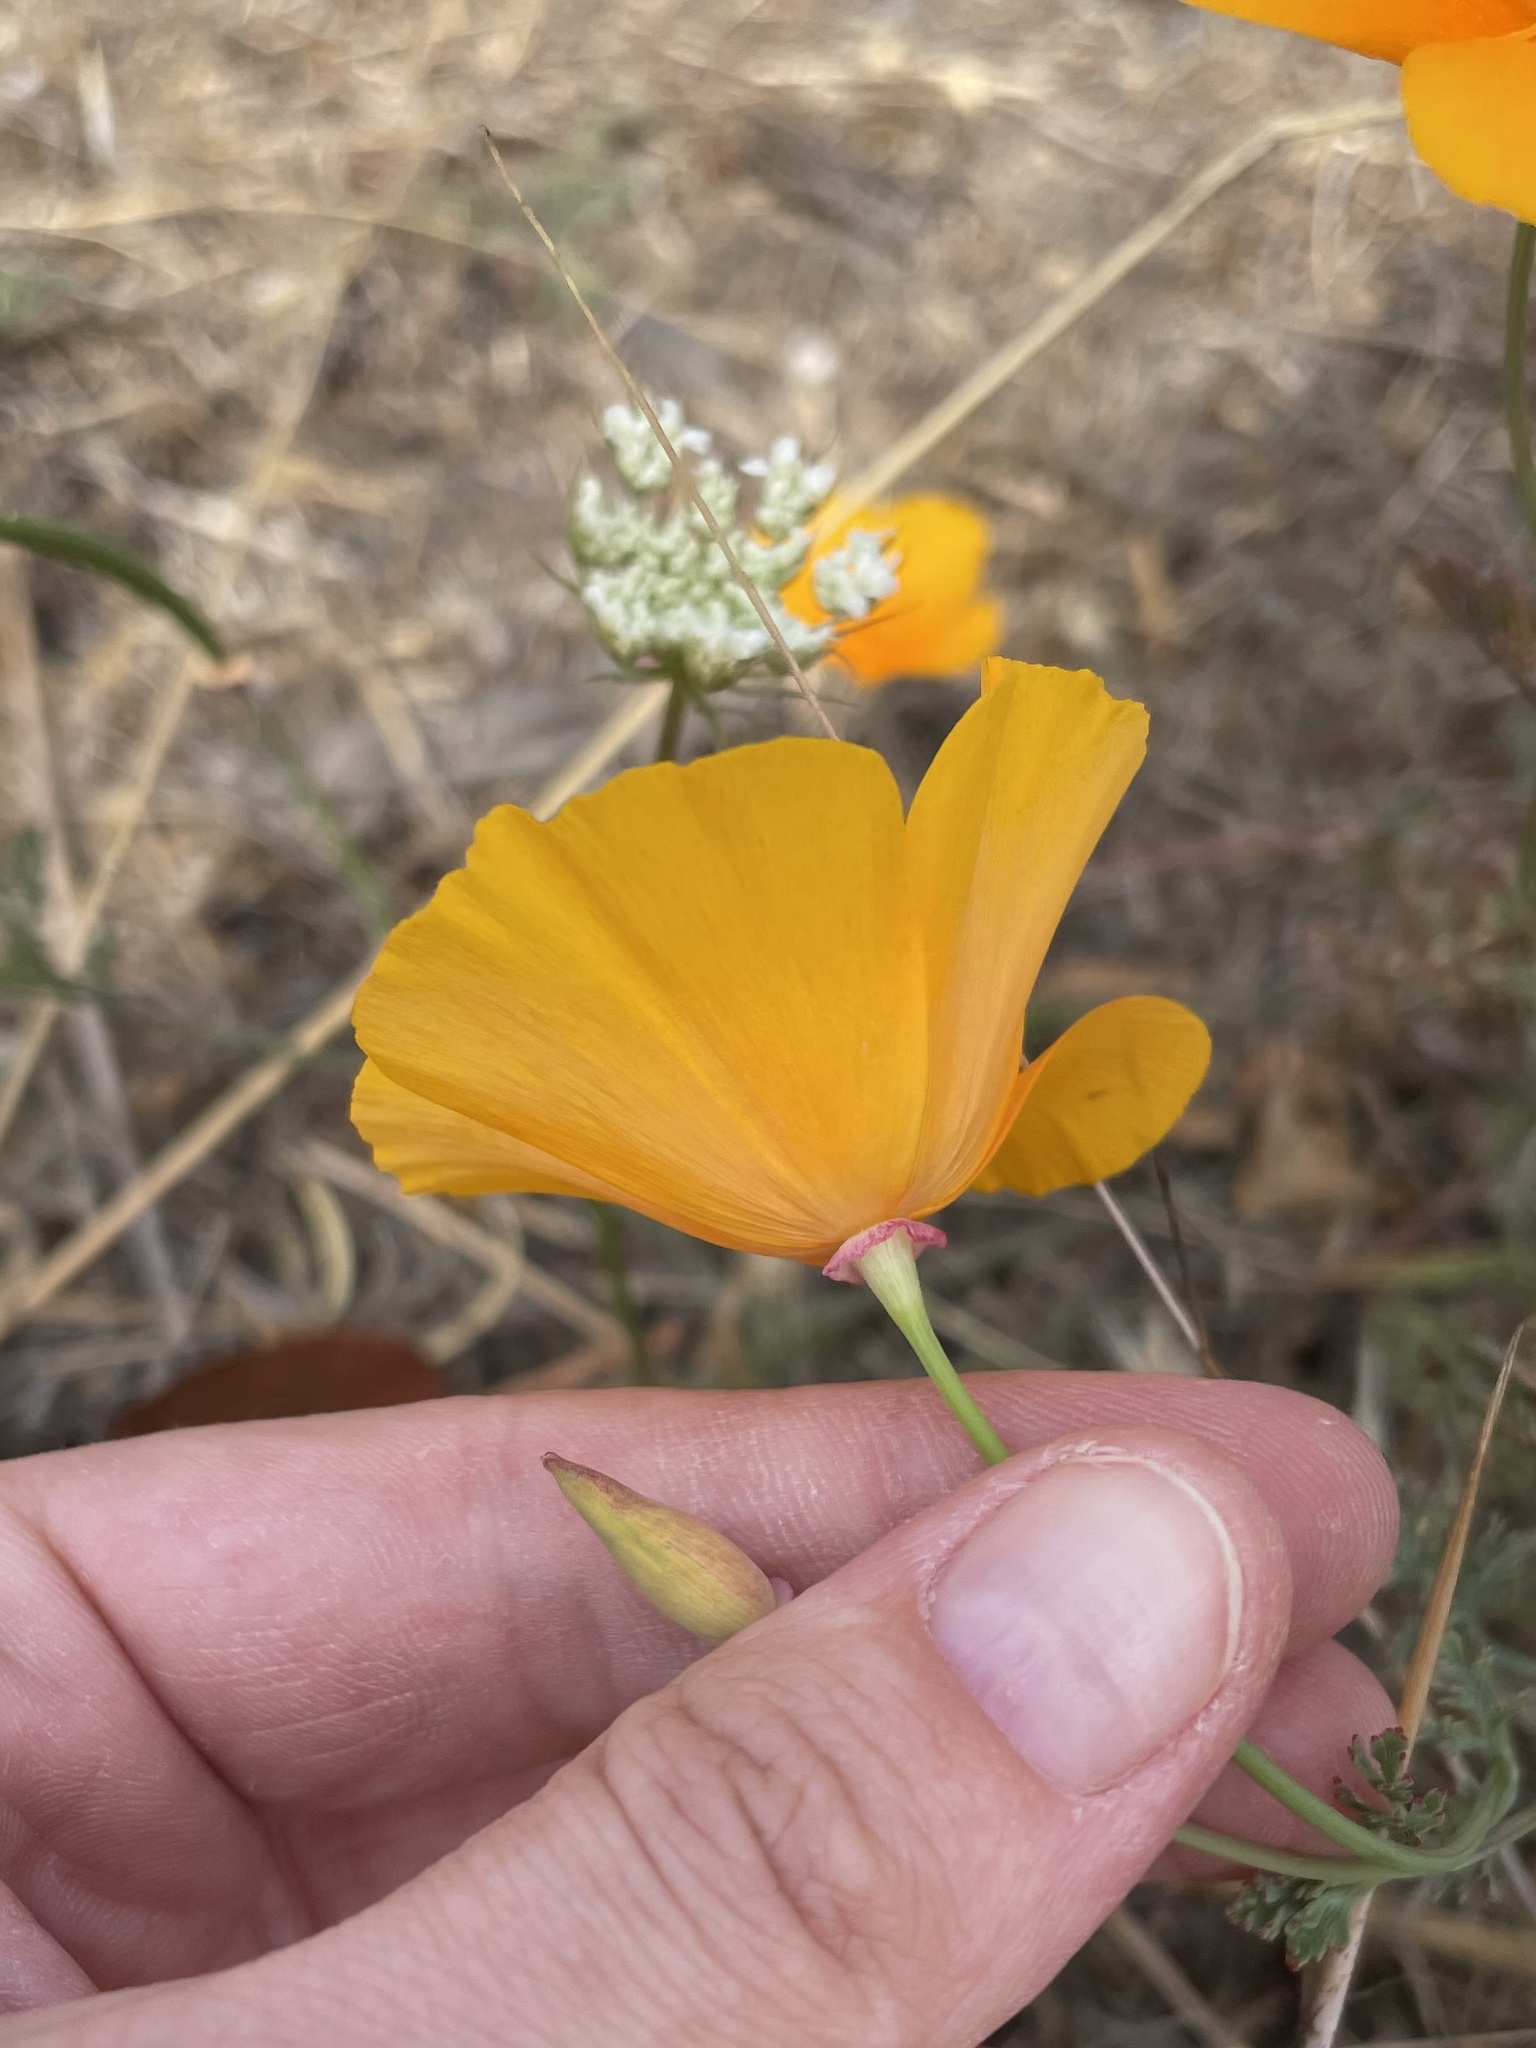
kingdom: Plantae
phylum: Tracheophyta
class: Magnoliopsida
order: Ranunculales
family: Papaveraceae
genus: Eschscholzia
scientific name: Eschscholzia californica
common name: California poppy
